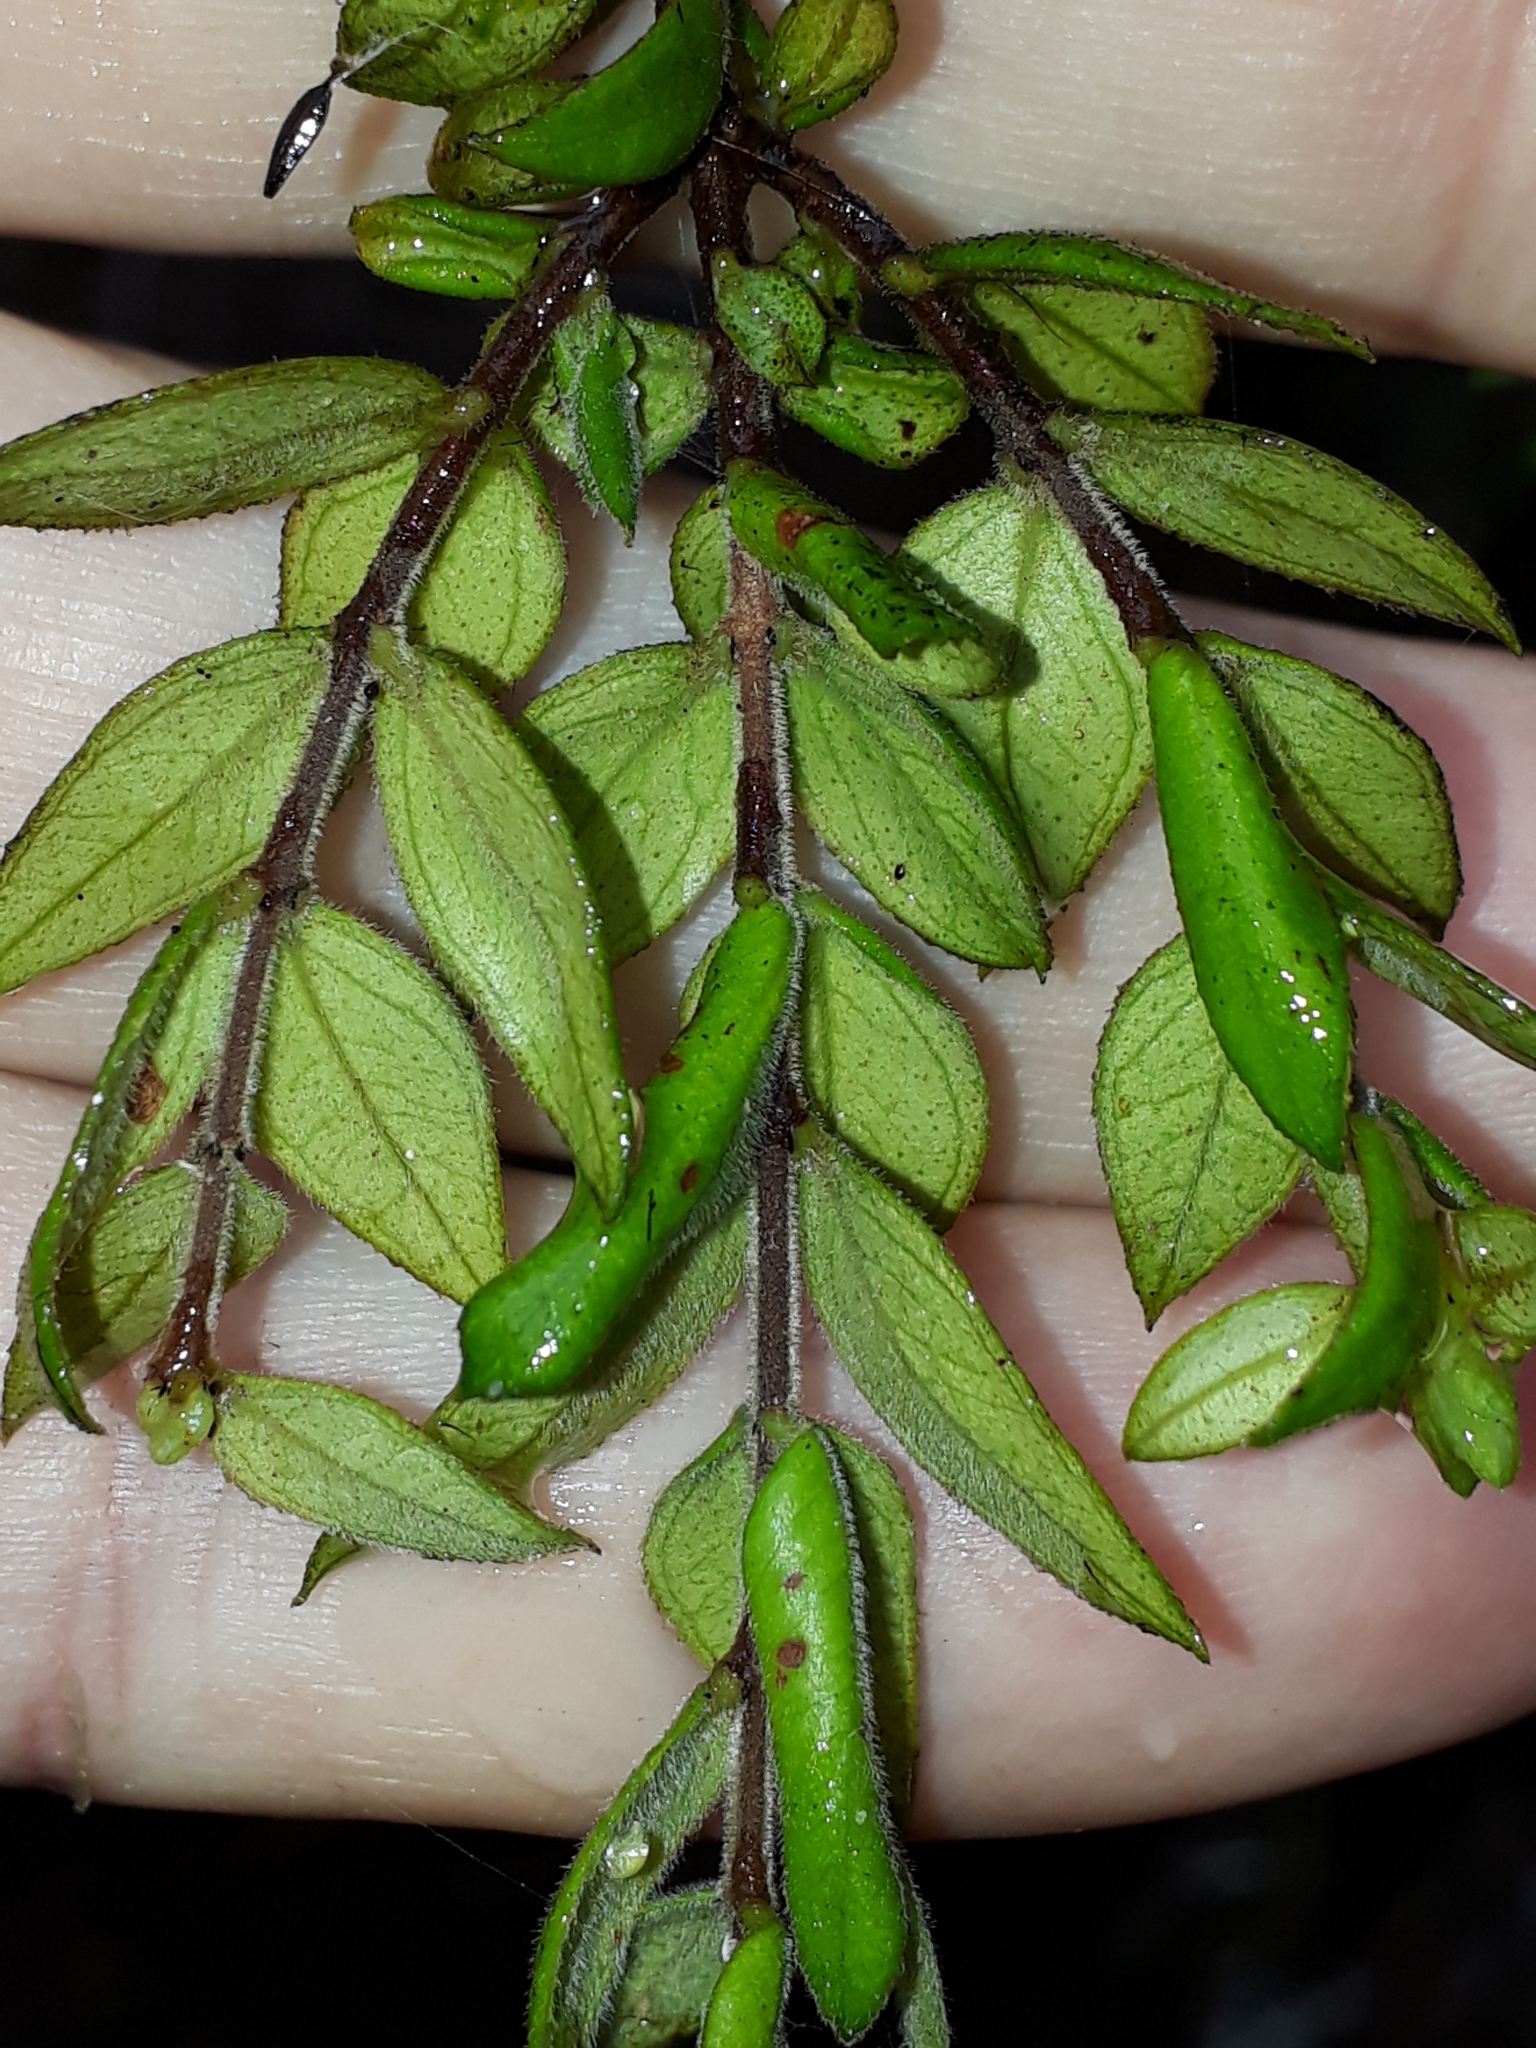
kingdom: Plantae
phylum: Tracheophyta
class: Magnoliopsida
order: Myrtales
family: Myrtaceae
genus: Metrosideros
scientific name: Metrosideros colensoi
